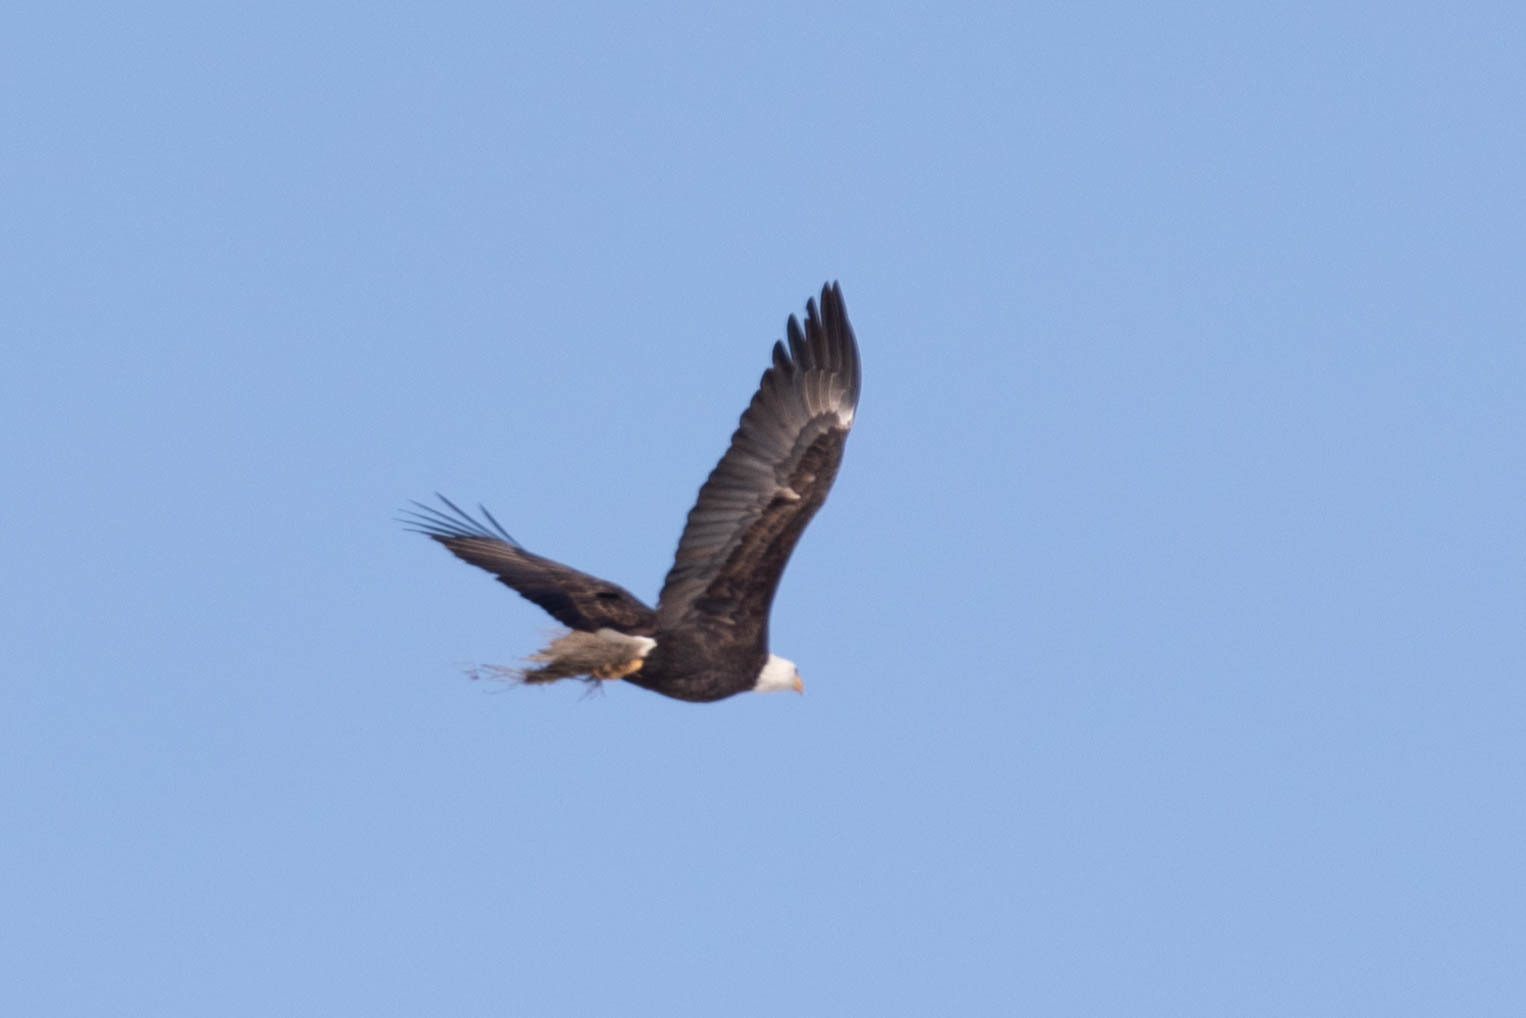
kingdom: Animalia
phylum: Chordata
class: Aves
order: Accipitriformes
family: Accipitridae
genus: Haliaeetus
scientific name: Haliaeetus leucocephalus
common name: Bald eagle
